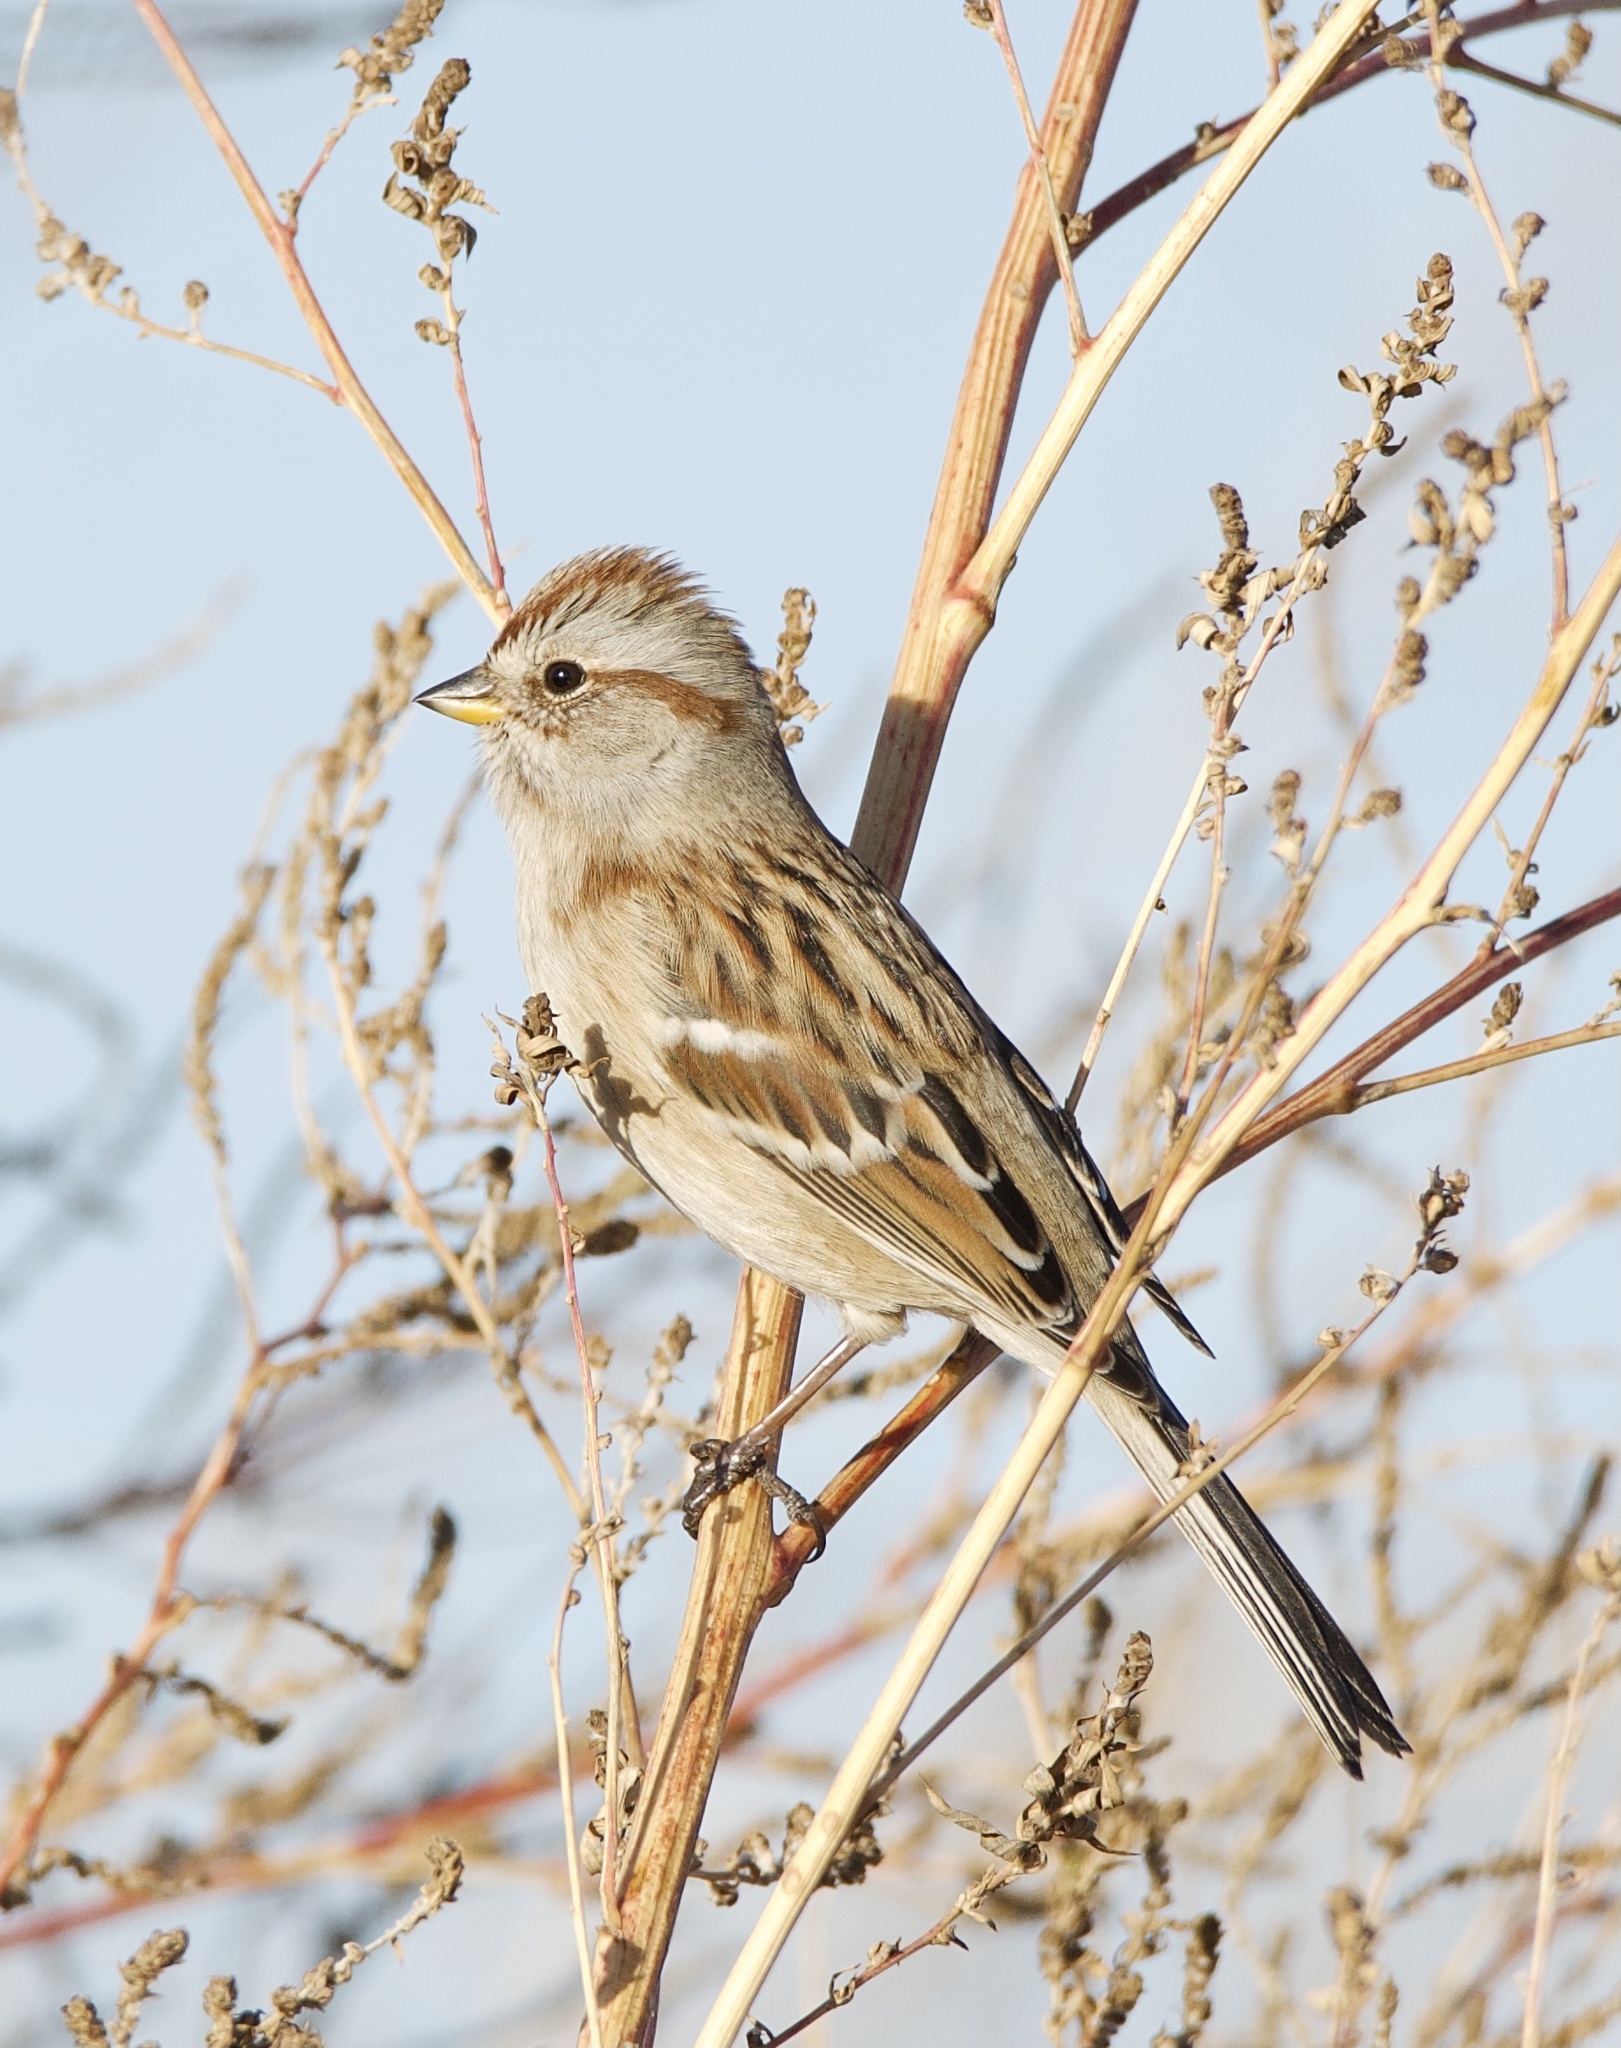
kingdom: Animalia
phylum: Chordata
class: Aves
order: Passeriformes
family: Passerellidae
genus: Spizelloides
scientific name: Spizelloides arborea
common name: American tree sparrow
